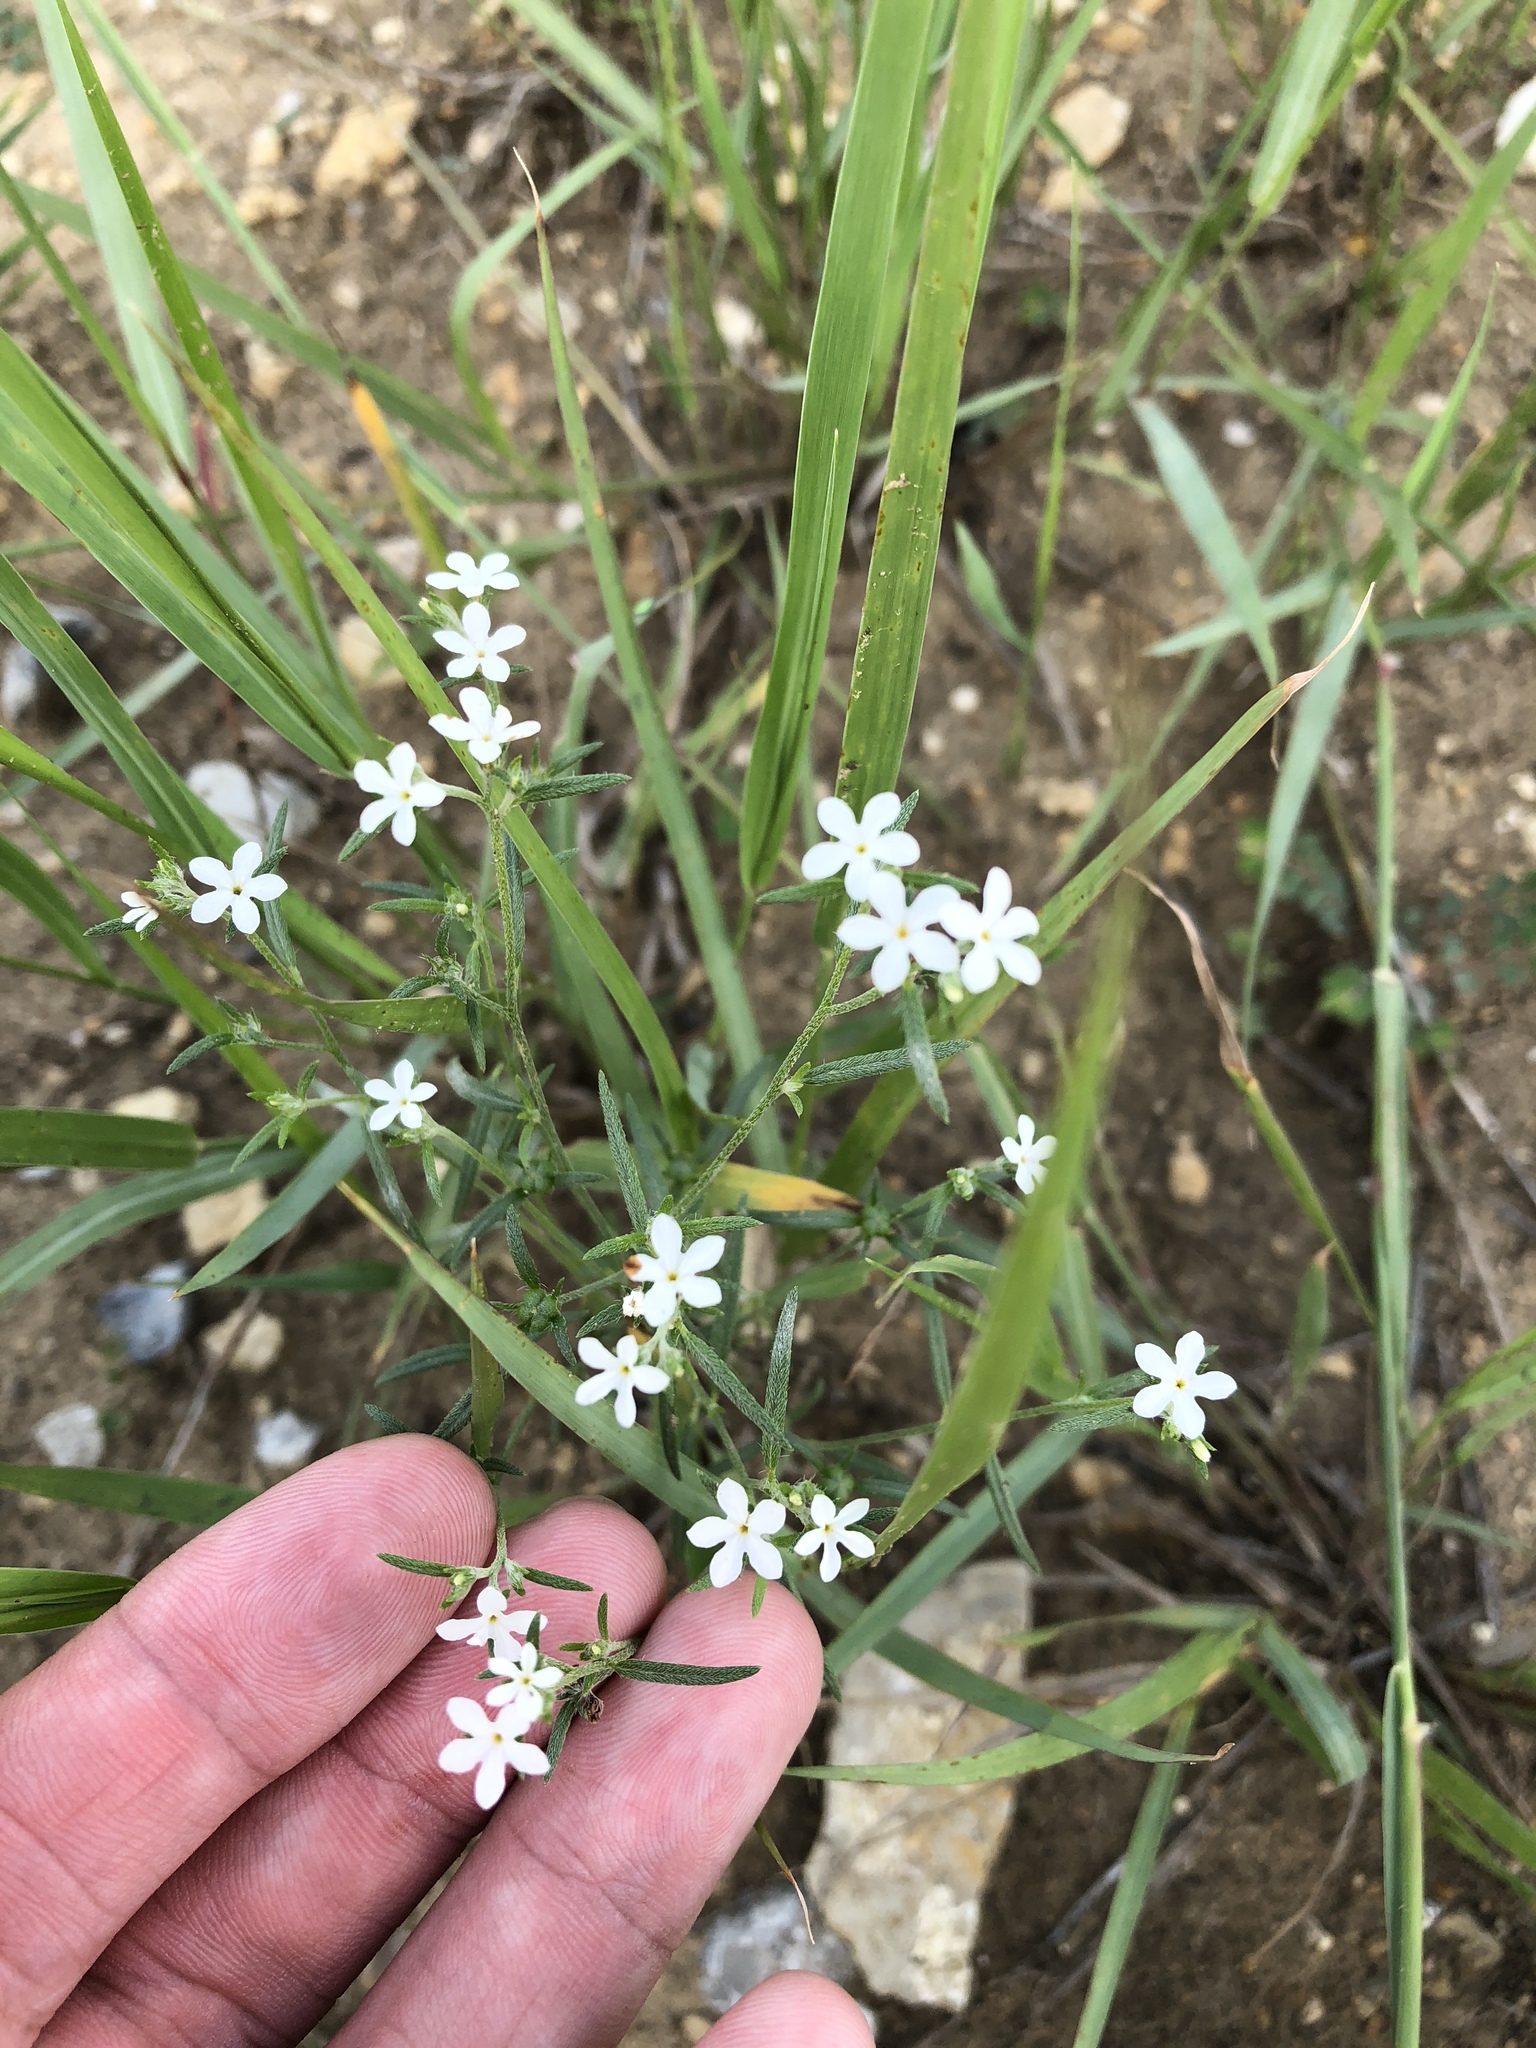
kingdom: Plantae
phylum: Tracheophyta
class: Magnoliopsida
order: Boraginales
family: Heliotropiaceae
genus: Euploca
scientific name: Euploca tenella
